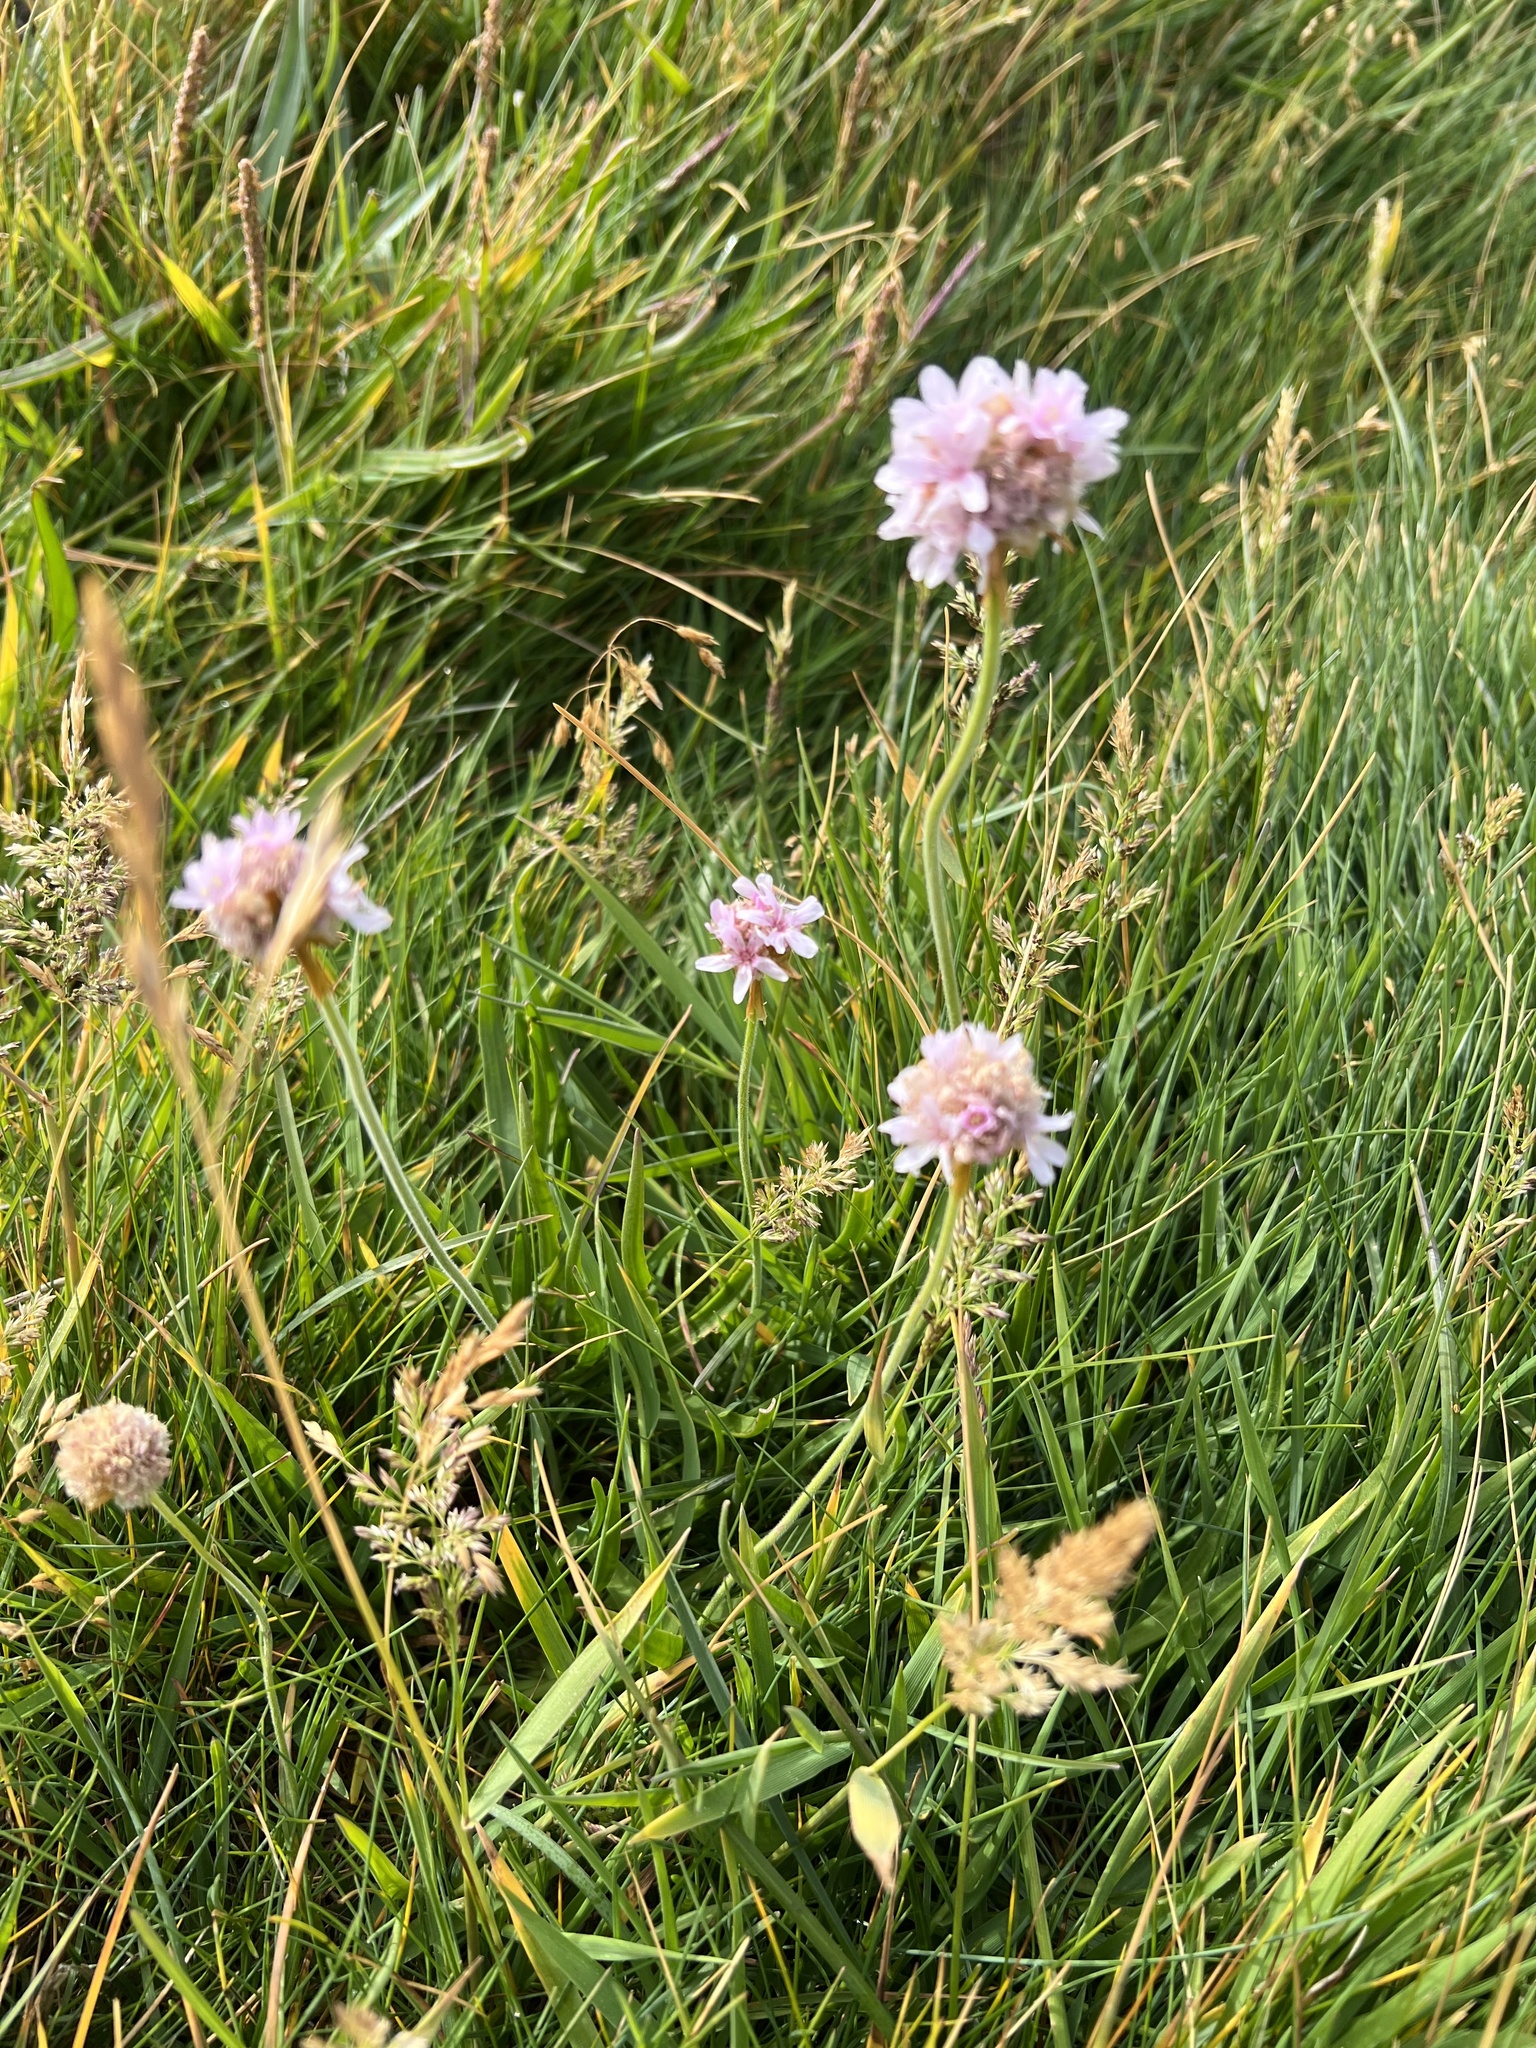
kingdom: Plantae
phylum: Tracheophyta
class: Magnoliopsida
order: Caryophyllales
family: Plumbaginaceae
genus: Armeria
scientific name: Armeria maritima
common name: Thrift
